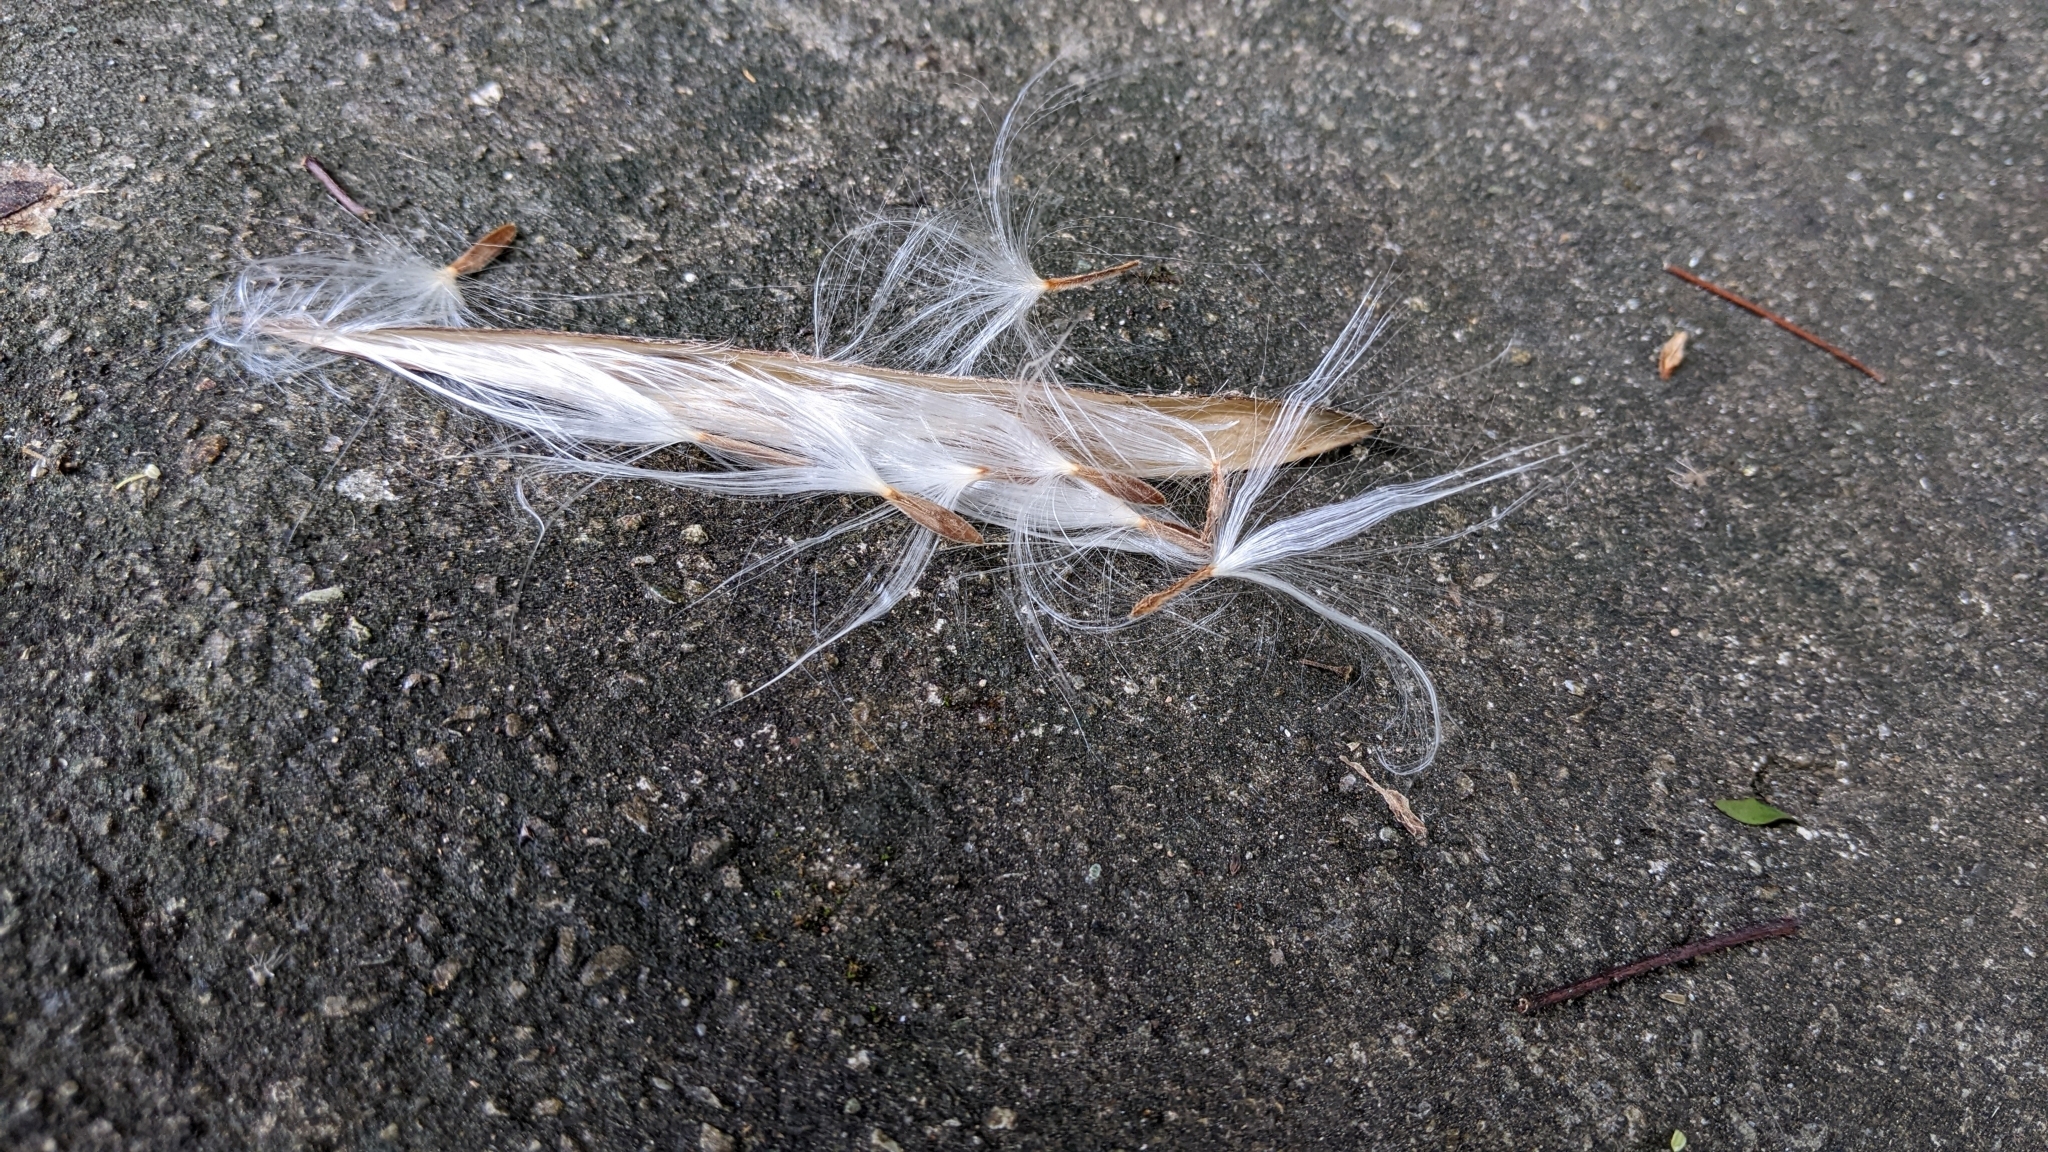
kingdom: Plantae
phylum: Tracheophyta
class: Magnoliopsida
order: Gentianales
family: Apocynaceae
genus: Urceola
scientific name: Urceola rosea
